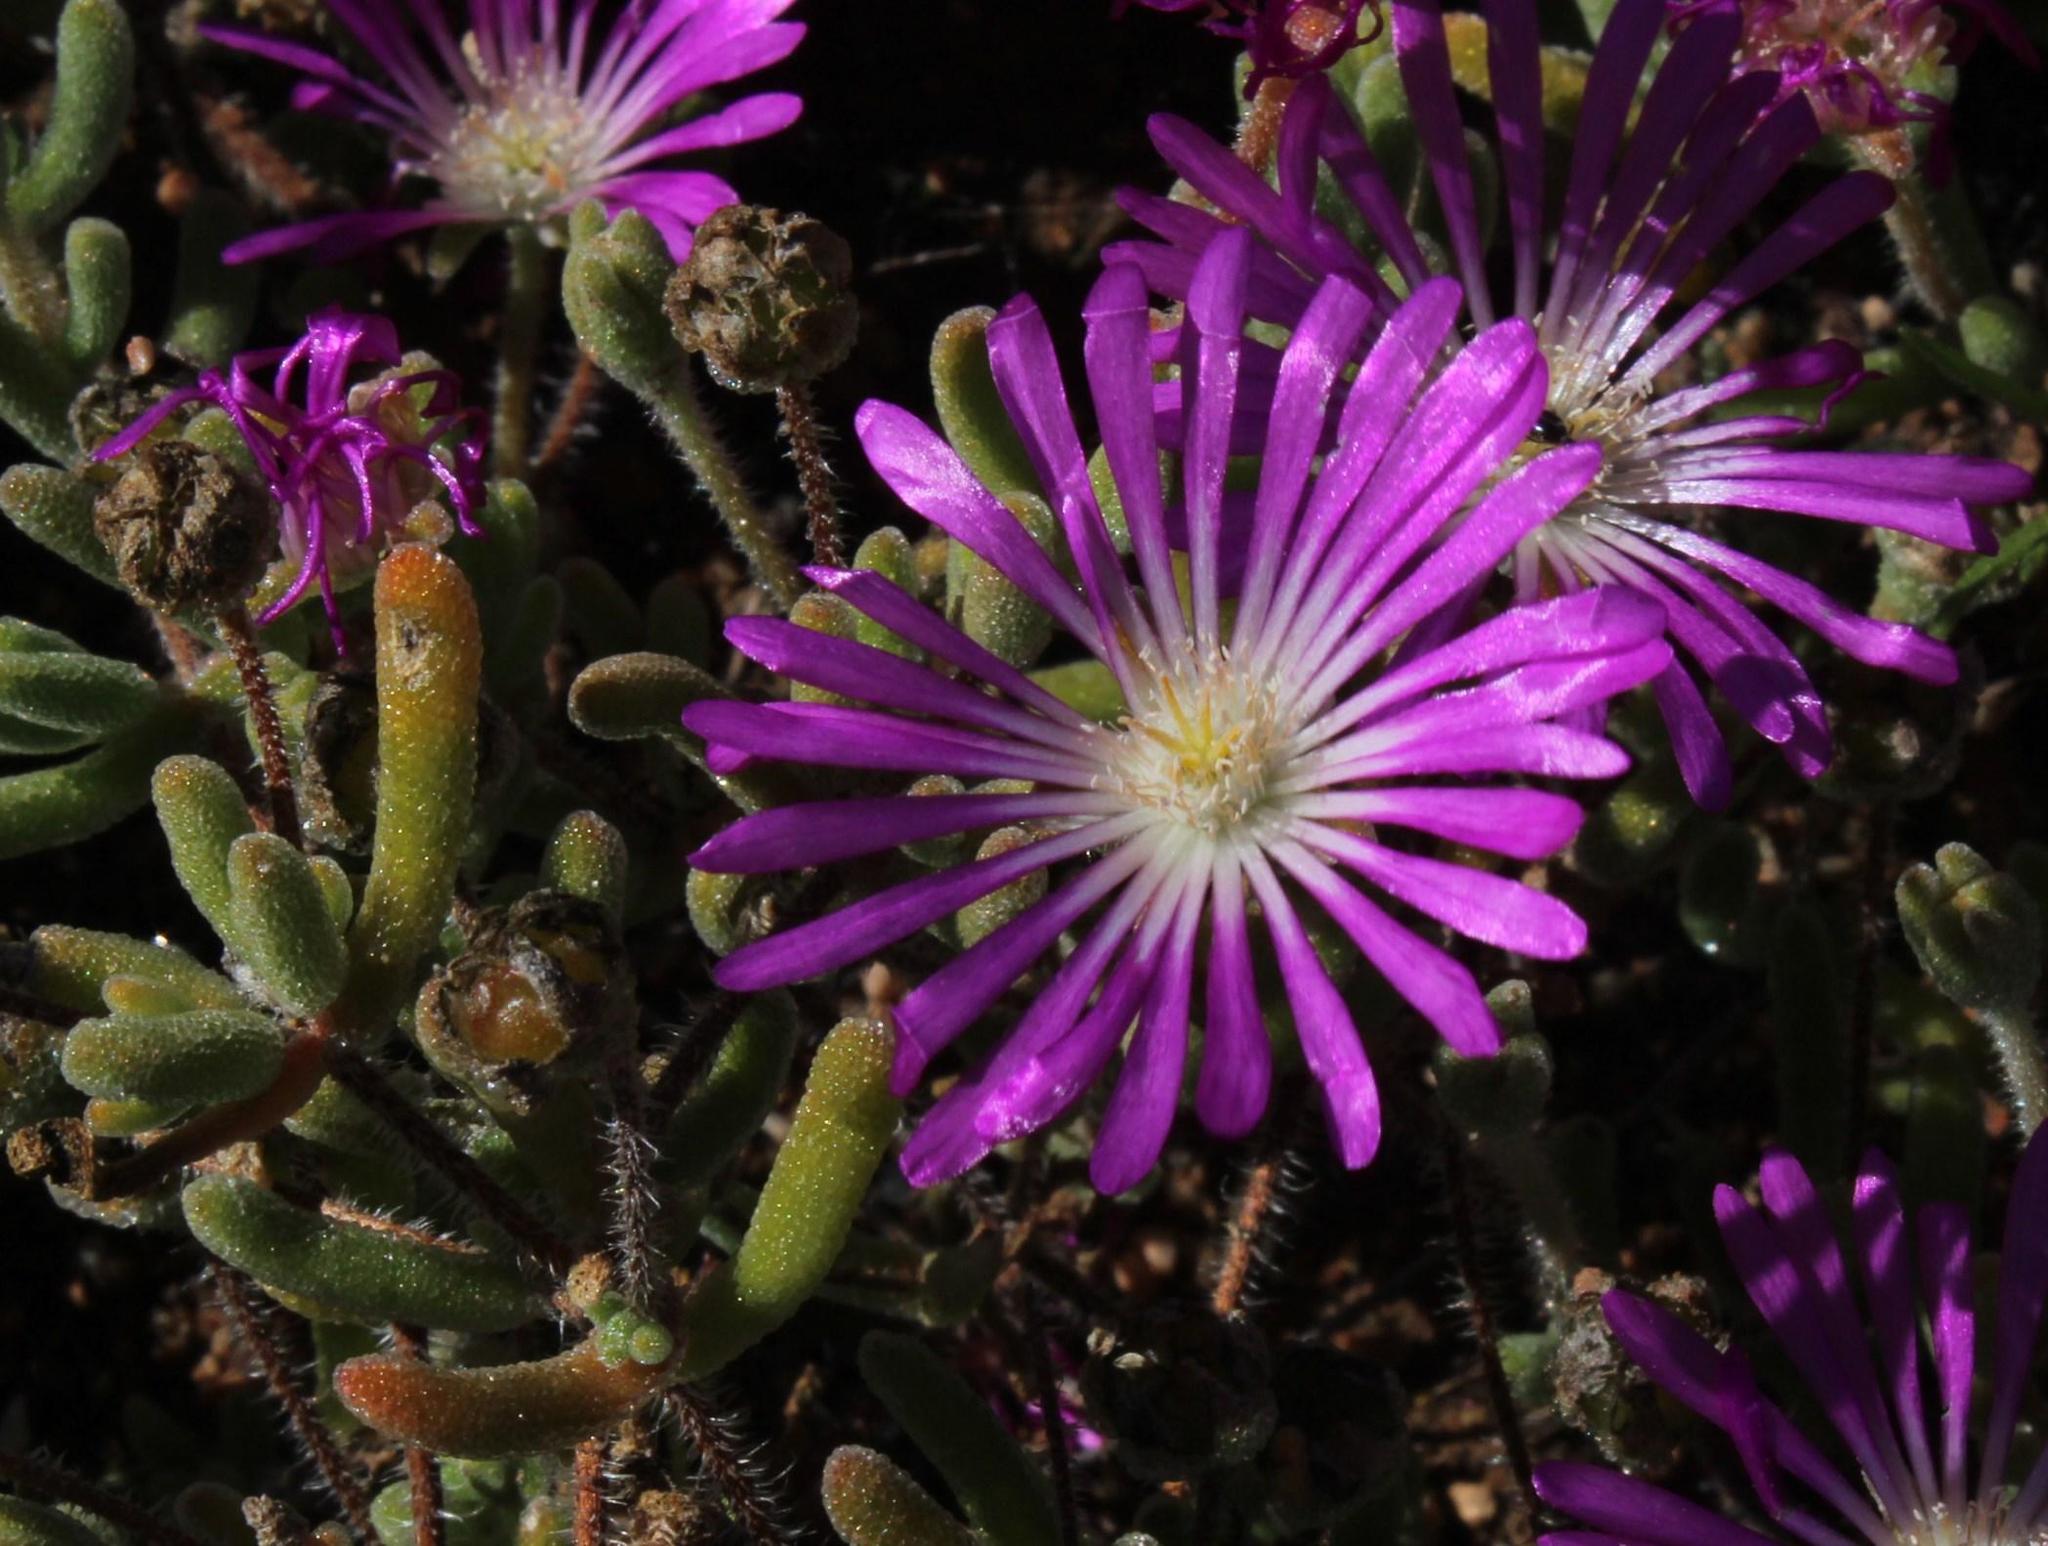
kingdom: Plantae
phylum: Tracheophyta
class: Magnoliopsida
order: Caryophyllales
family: Aizoaceae
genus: Drosanthemum
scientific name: Drosanthemum oculatum
